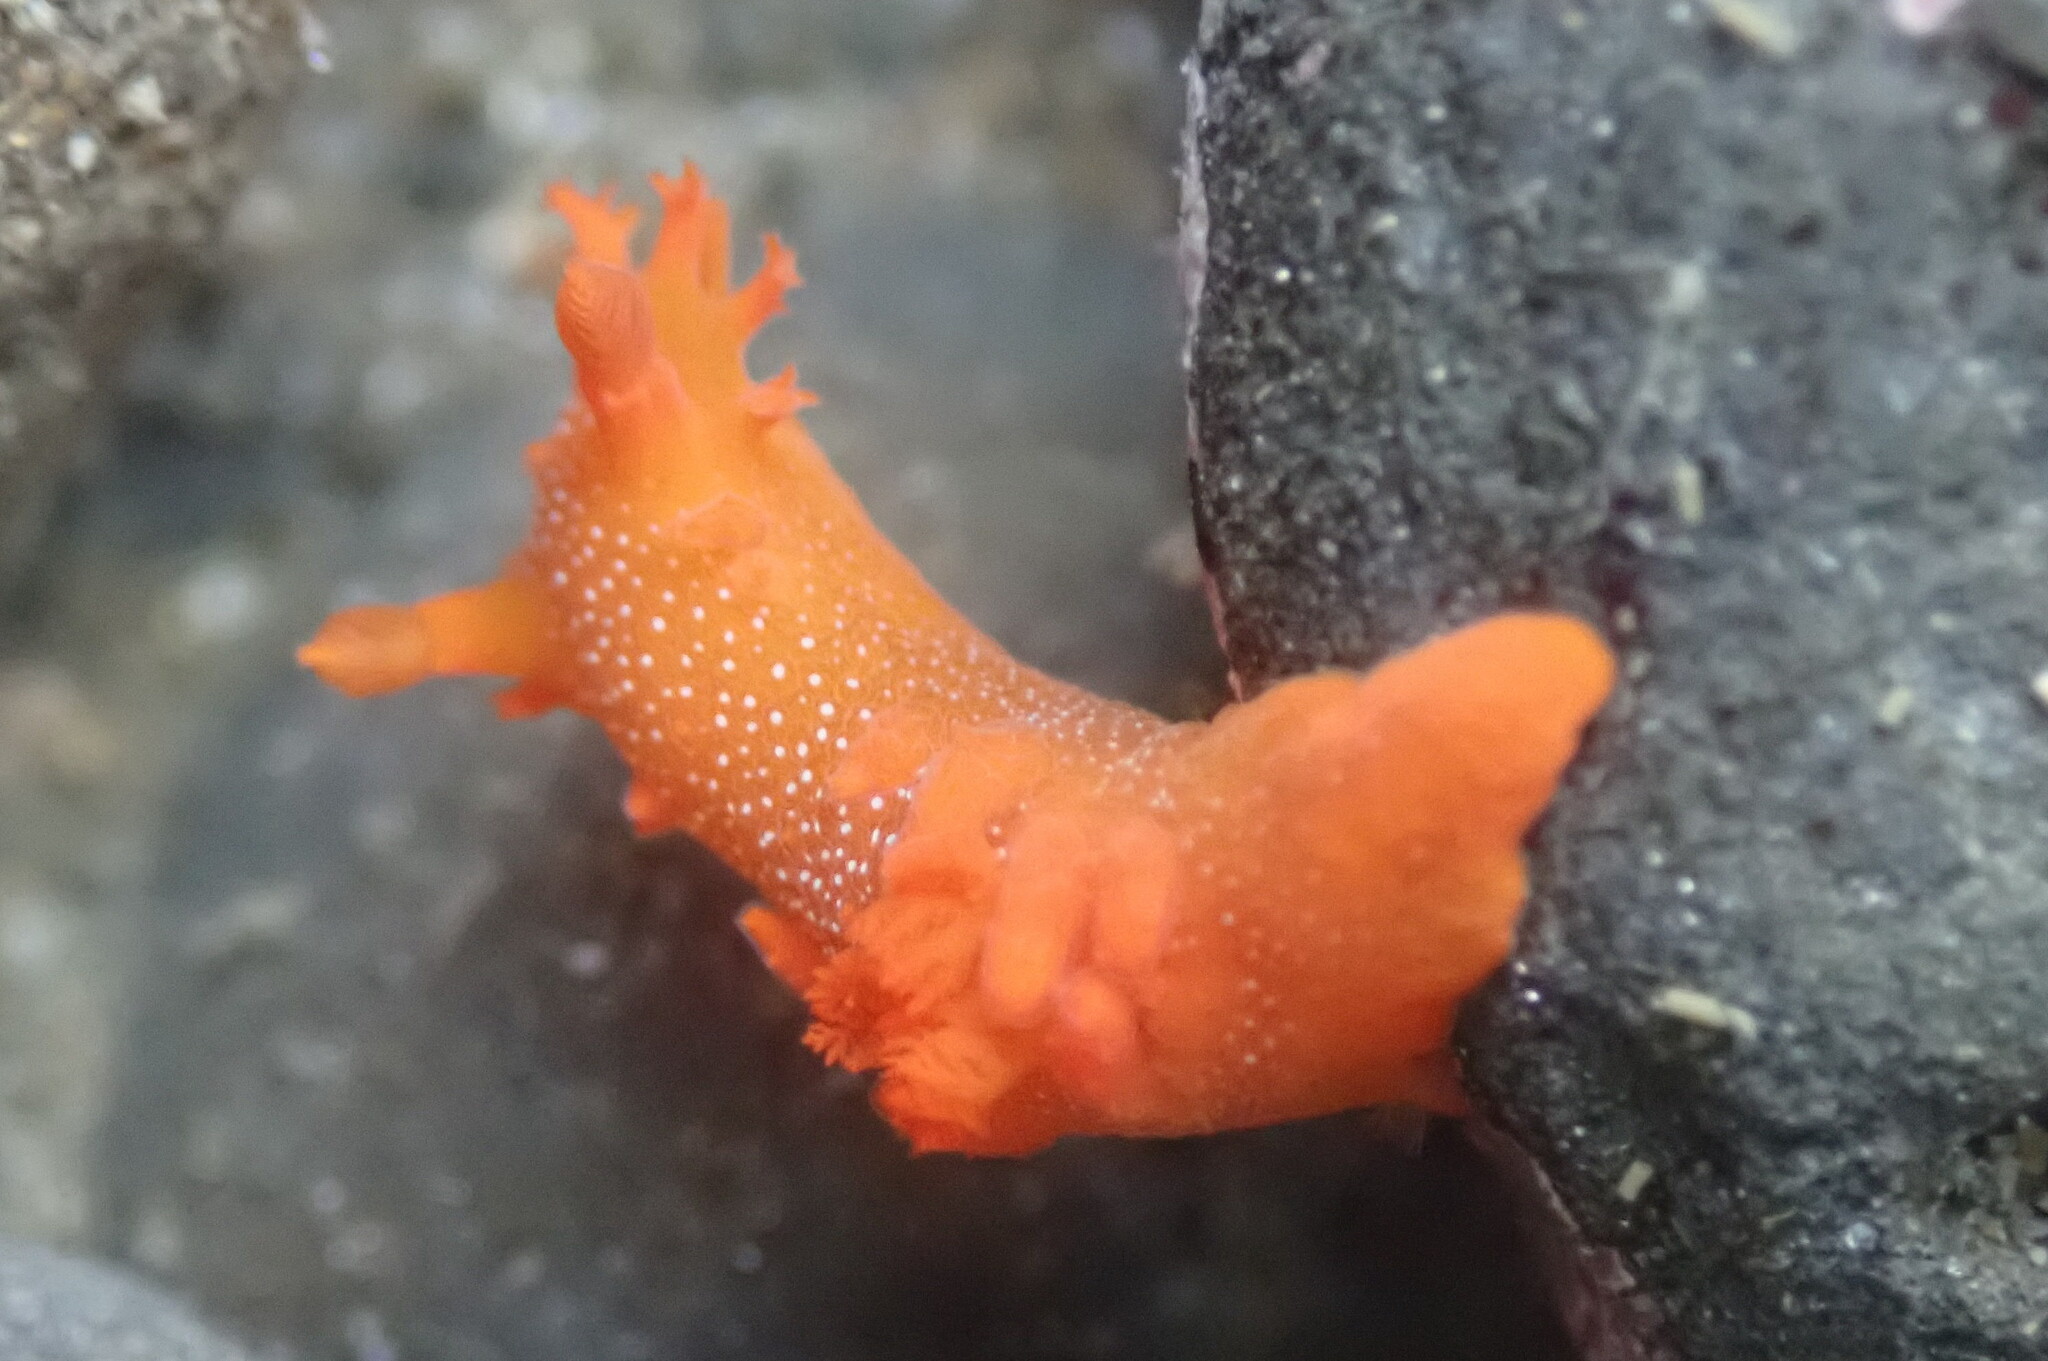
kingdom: Animalia
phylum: Mollusca
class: Gastropoda
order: Nudibranchia
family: Polyceridae
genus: Triopha
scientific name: Triopha maculata
